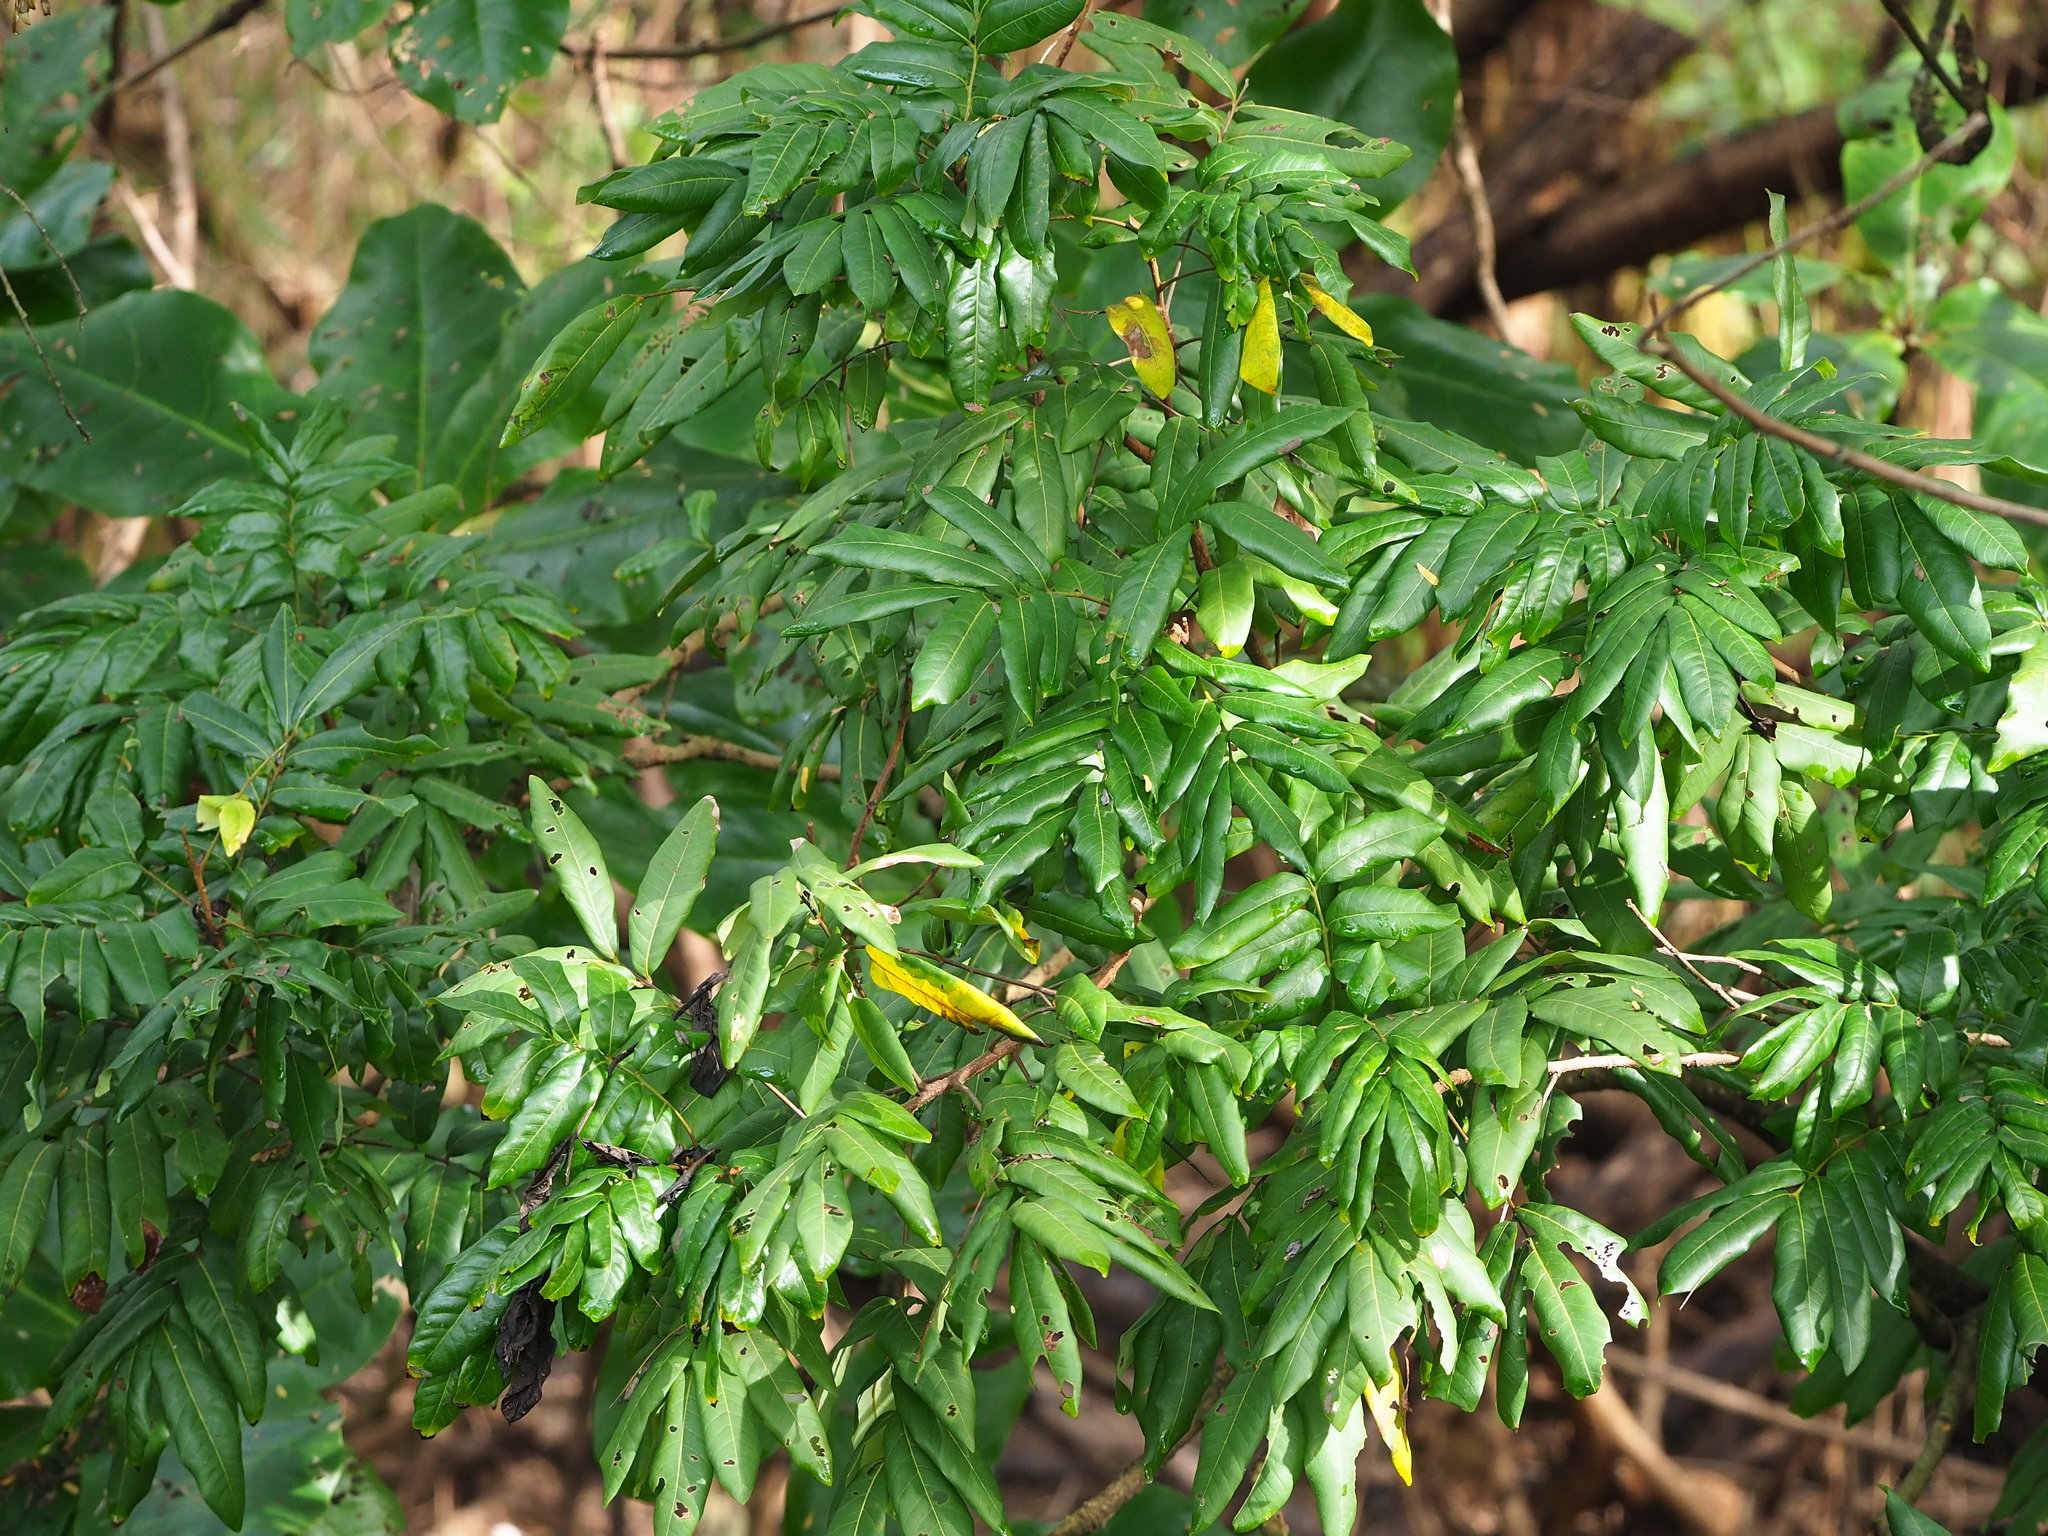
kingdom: Plantae
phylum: Tracheophyta
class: Magnoliopsida
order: Sapindales
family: Sapindaceae
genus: Dimocarpus
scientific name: Dimocarpus longan
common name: Longan
